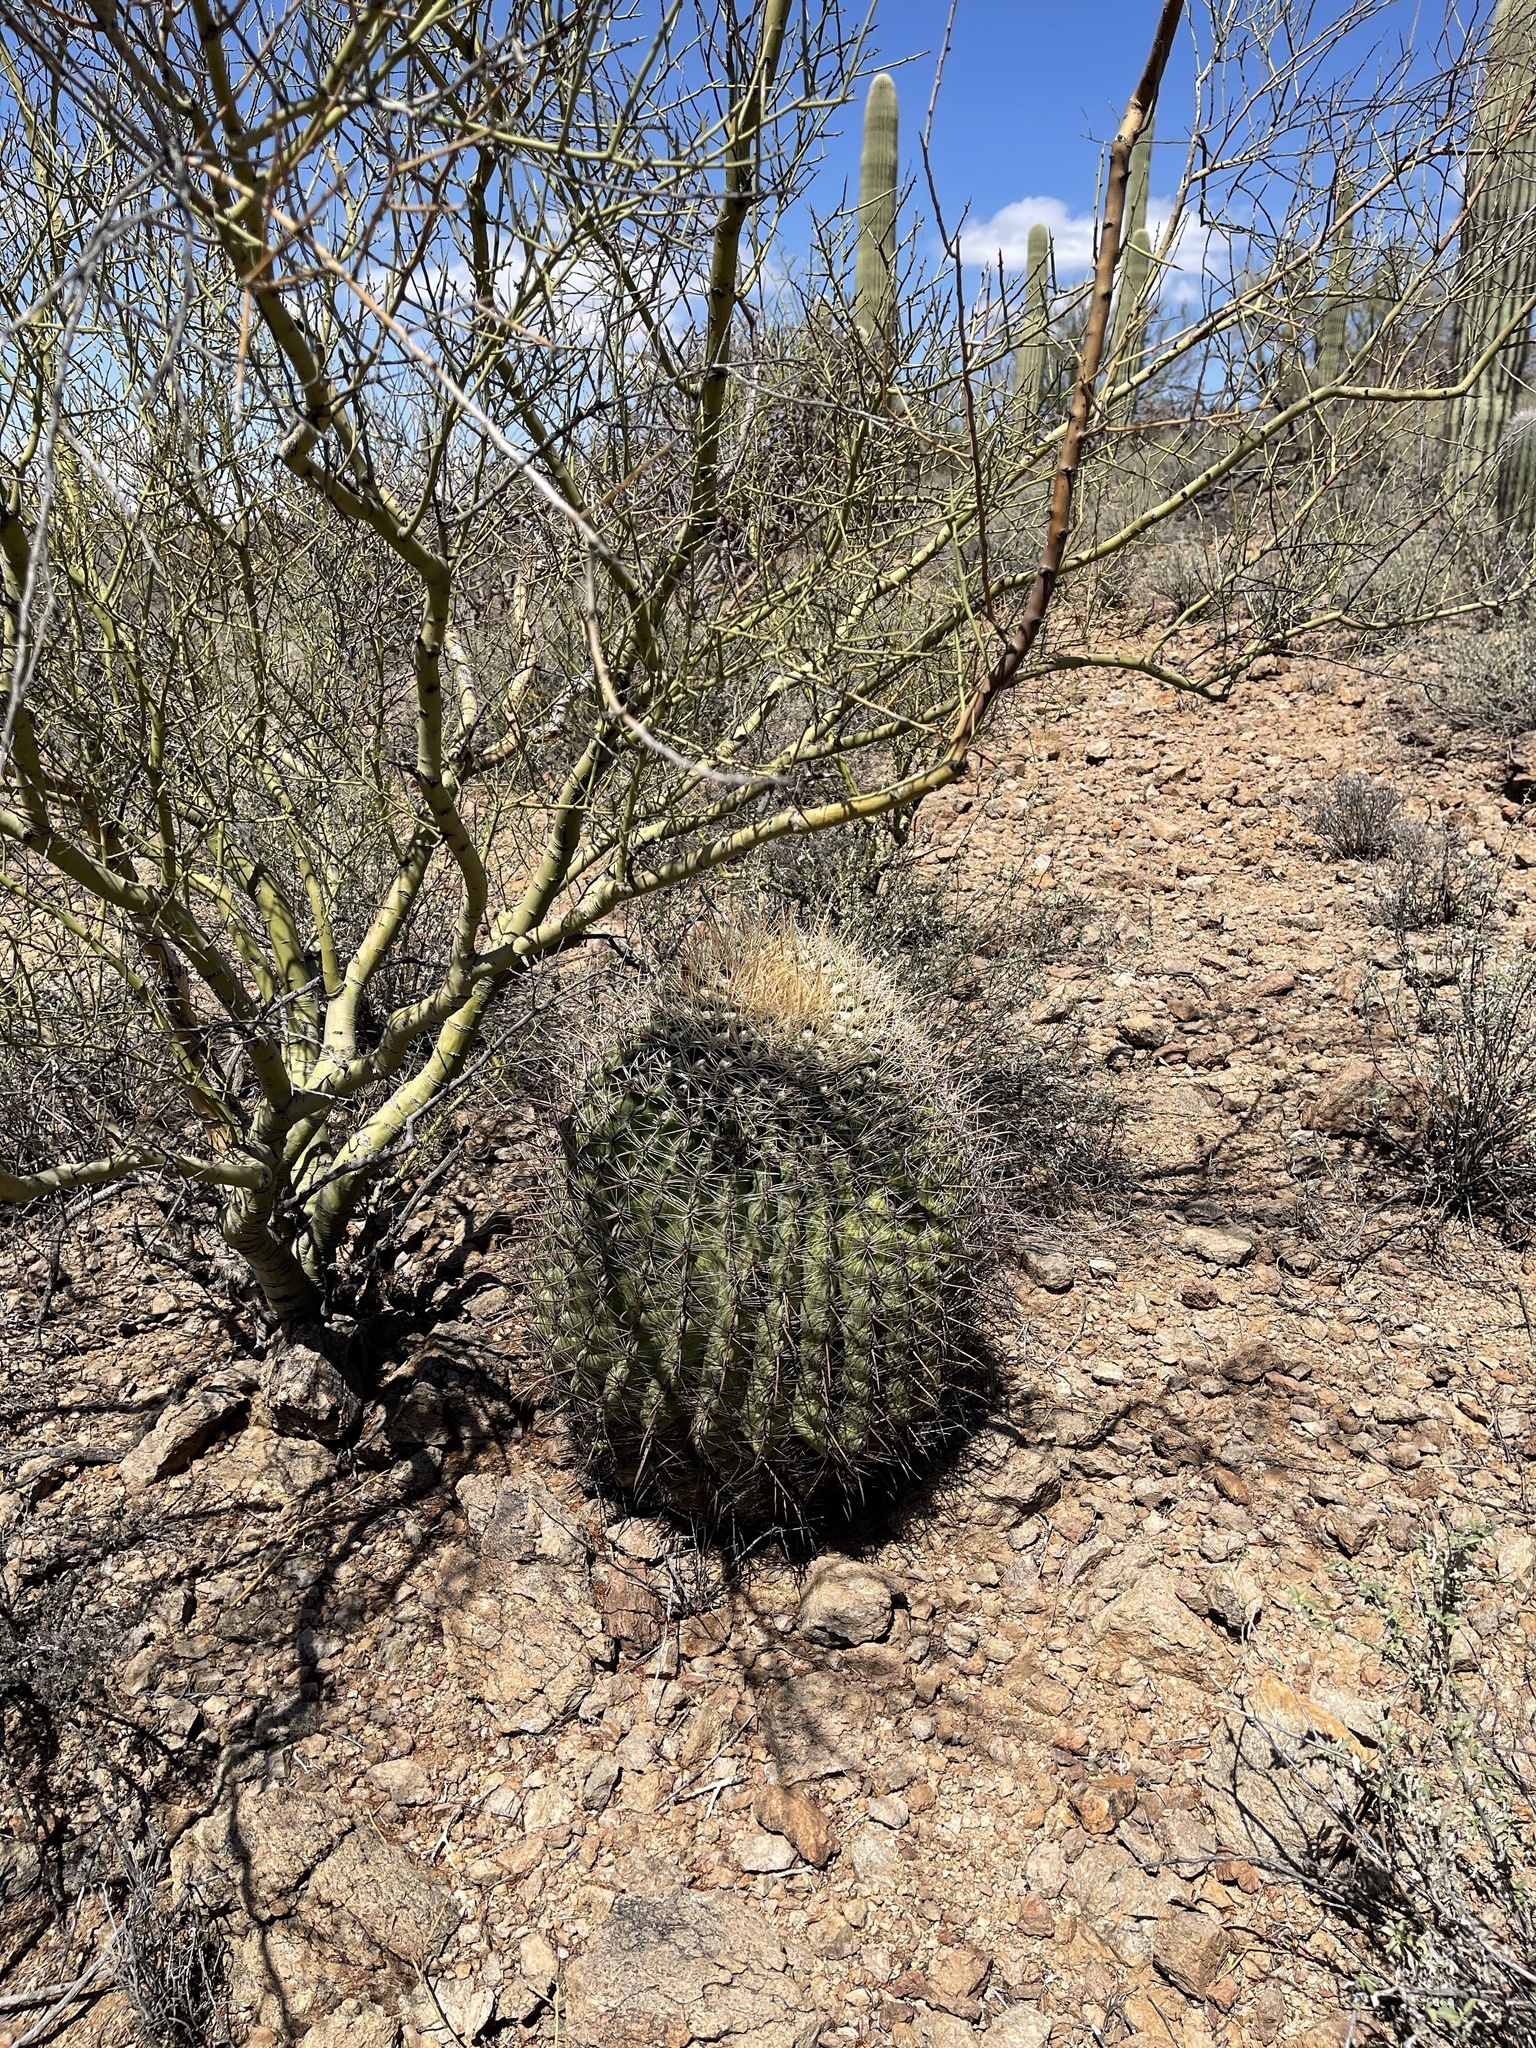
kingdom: Plantae
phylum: Tracheophyta
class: Magnoliopsida
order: Caryophyllales
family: Cactaceae
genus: Ferocactus
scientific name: Ferocactus wislizeni
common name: Candy barrel cactus
